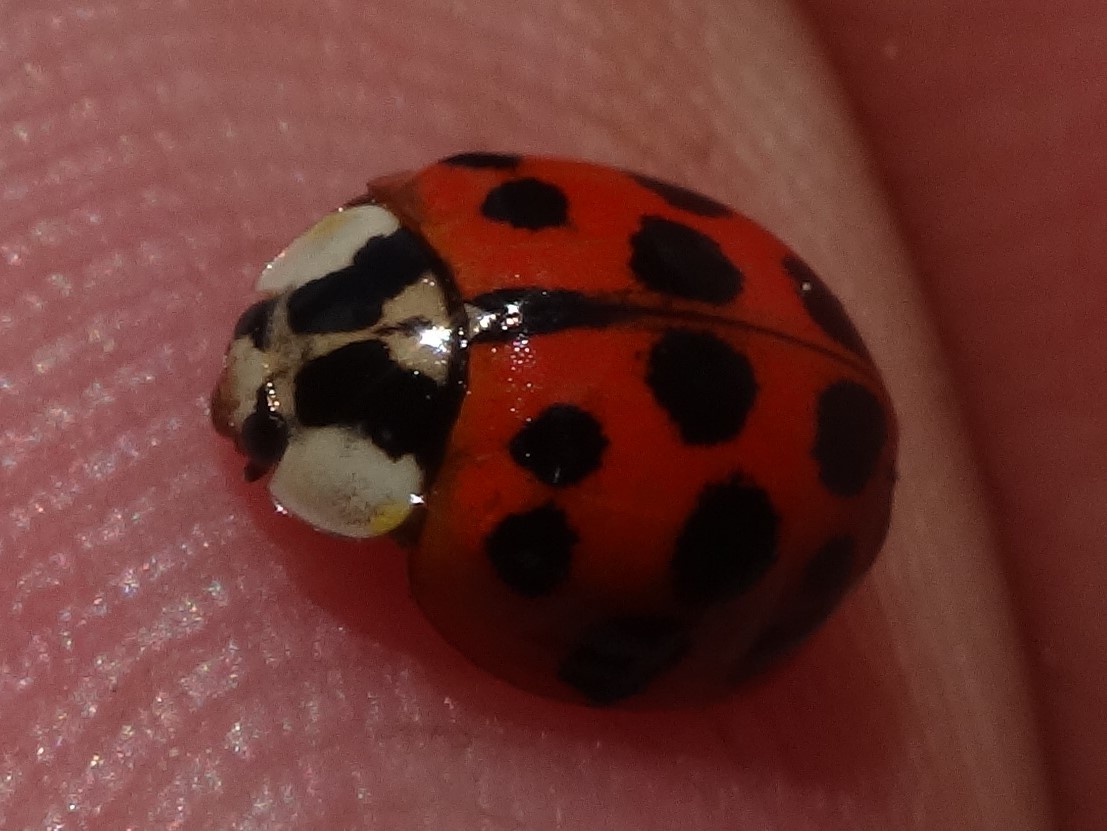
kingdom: Animalia
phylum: Arthropoda
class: Insecta
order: Coleoptera
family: Coccinellidae
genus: Harmonia
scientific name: Harmonia axyridis
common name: Harlequin ladybird
